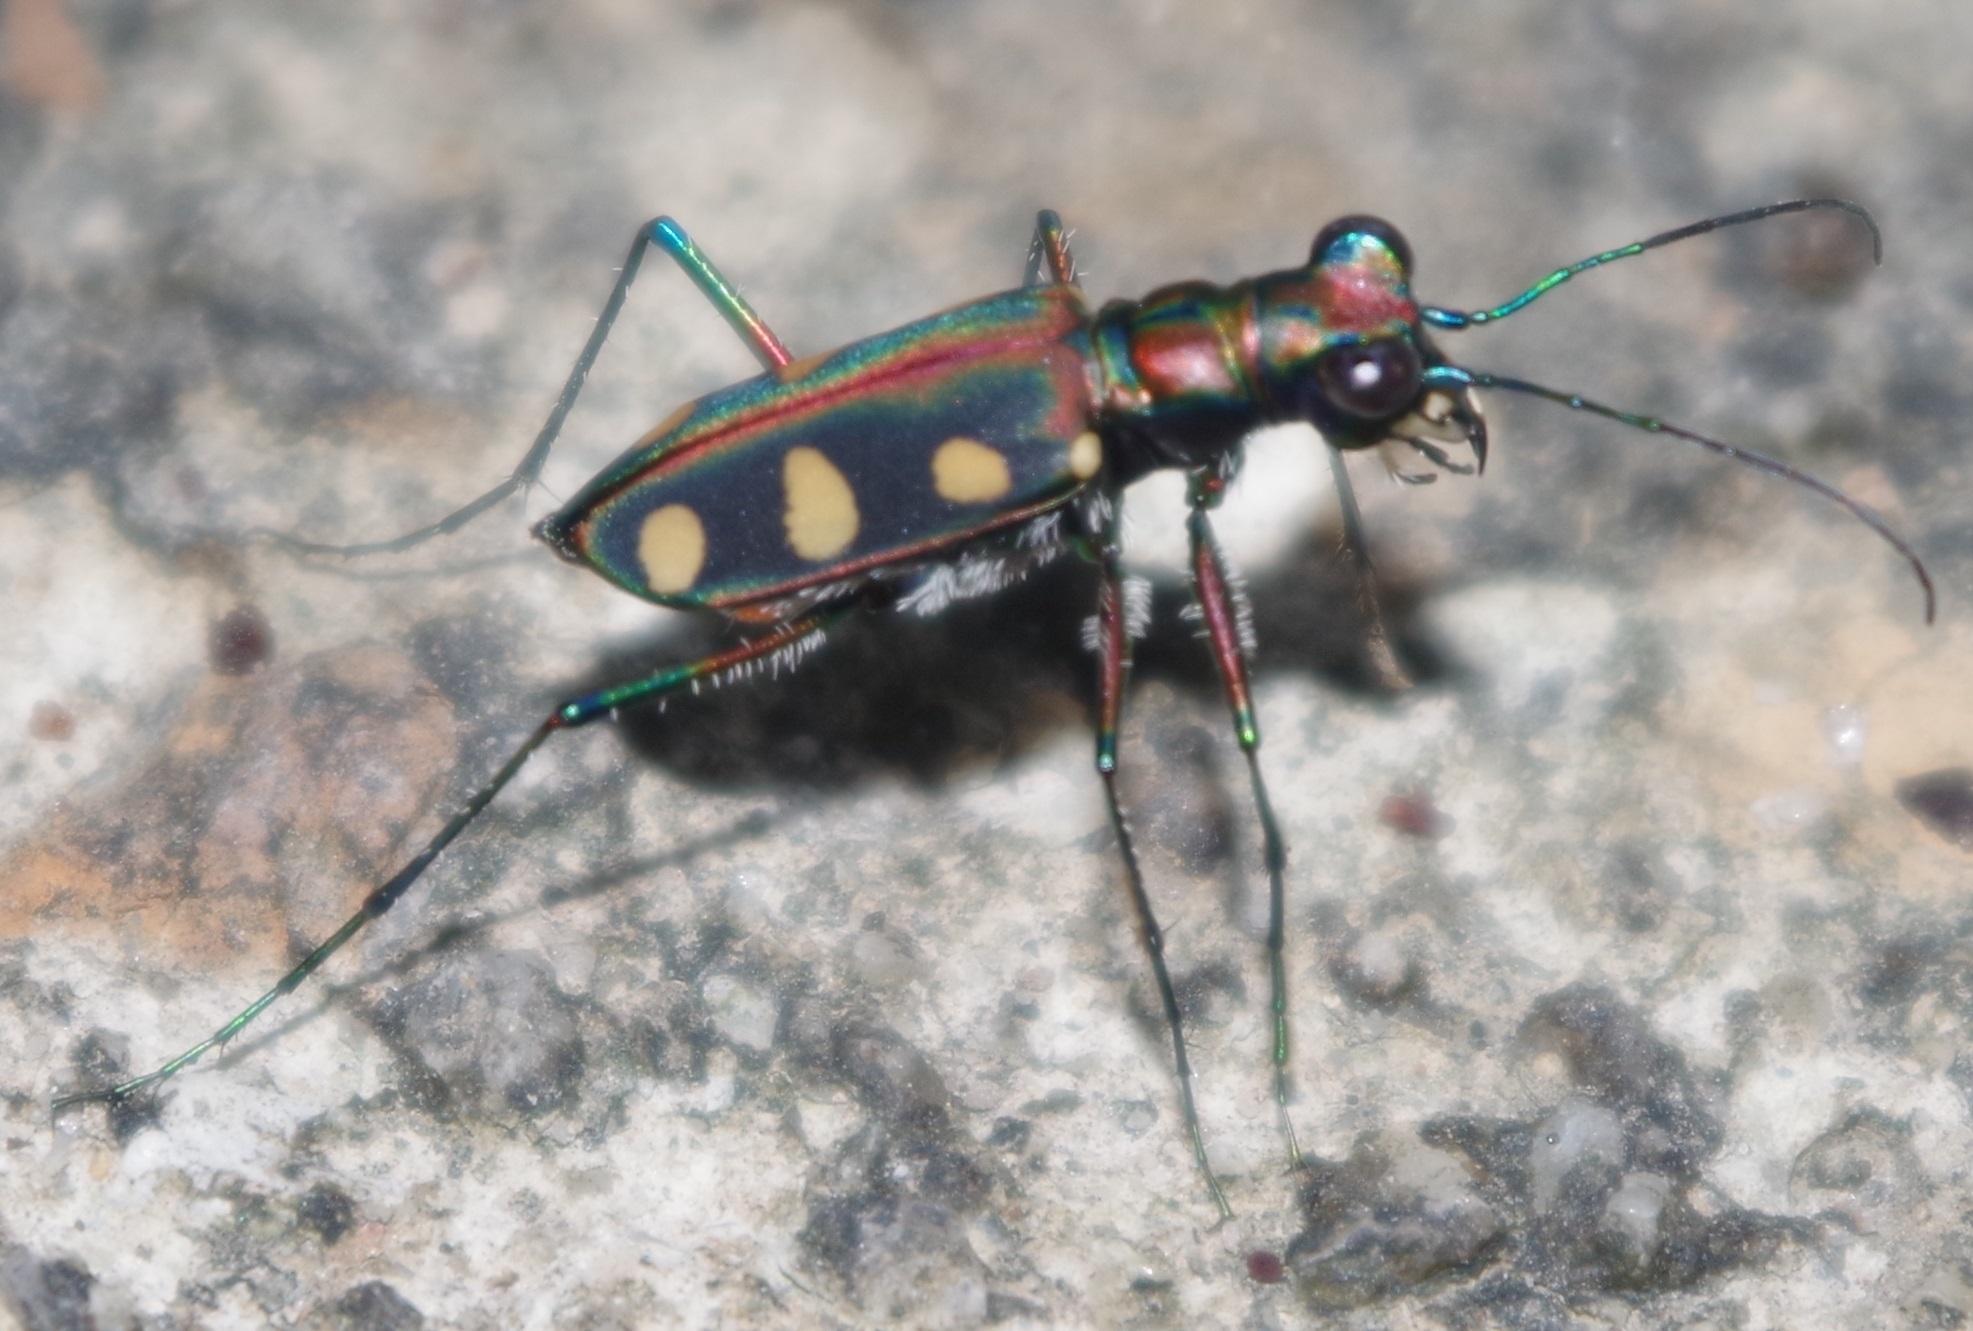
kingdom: Animalia
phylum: Arthropoda
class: Insecta
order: Coleoptera
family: Carabidae
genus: Cicindela
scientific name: Cicindela aurulenta
